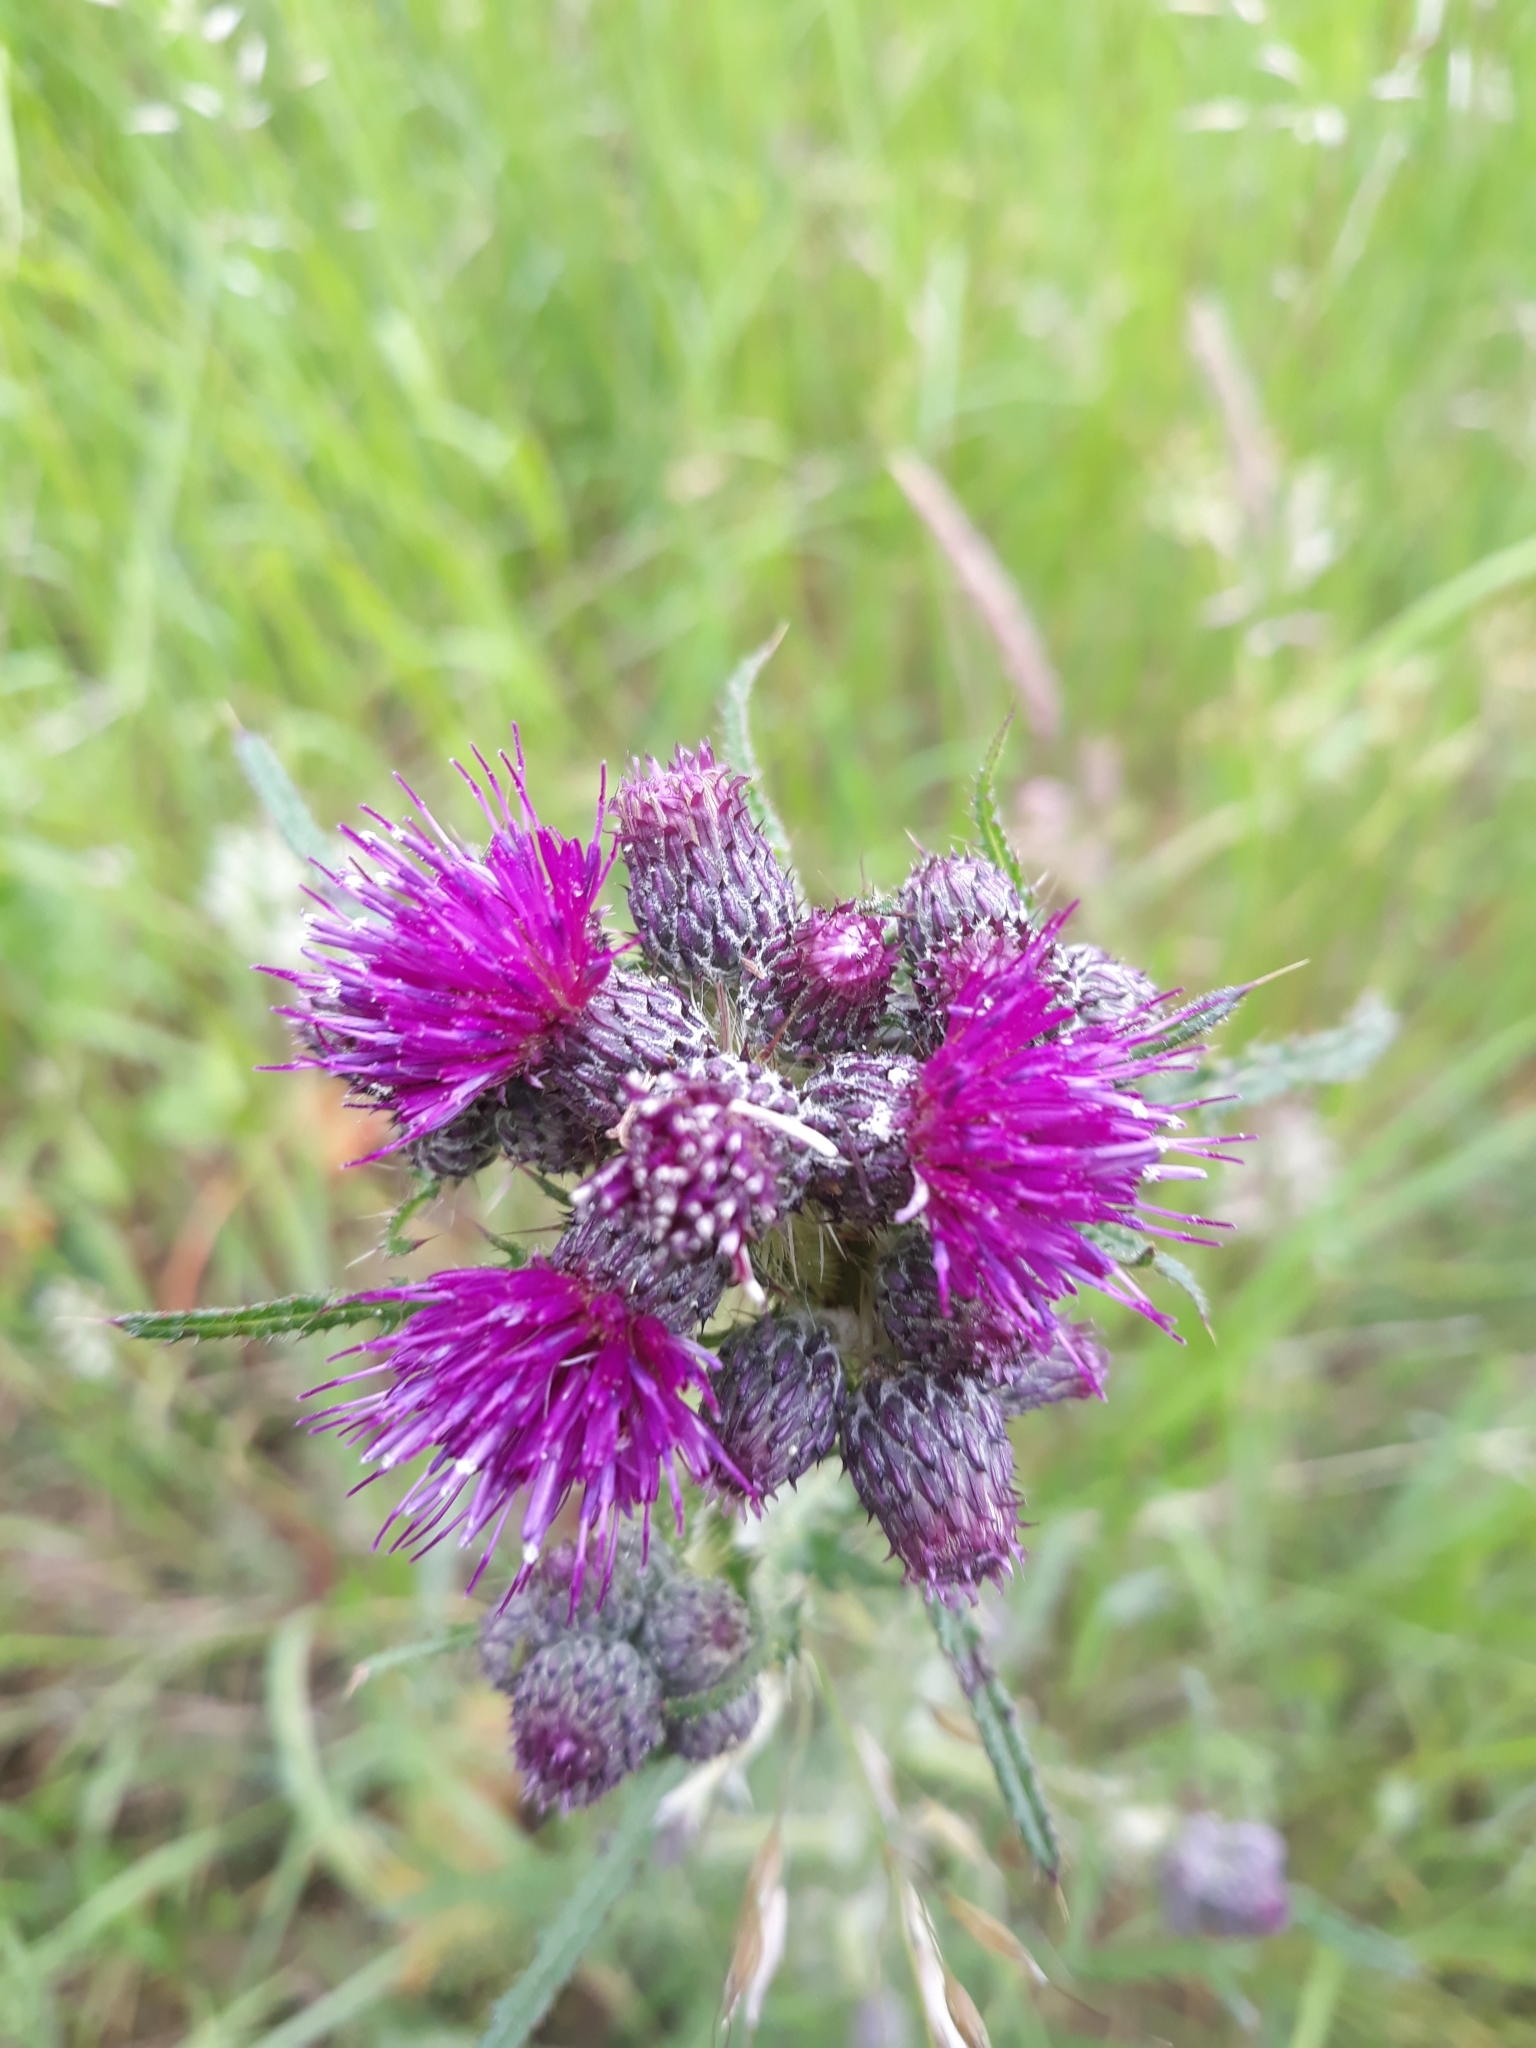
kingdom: Plantae
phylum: Tracheophyta
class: Magnoliopsida
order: Asterales
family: Asteraceae
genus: Cirsium
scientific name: Cirsium palustre
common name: Marsh thistle
